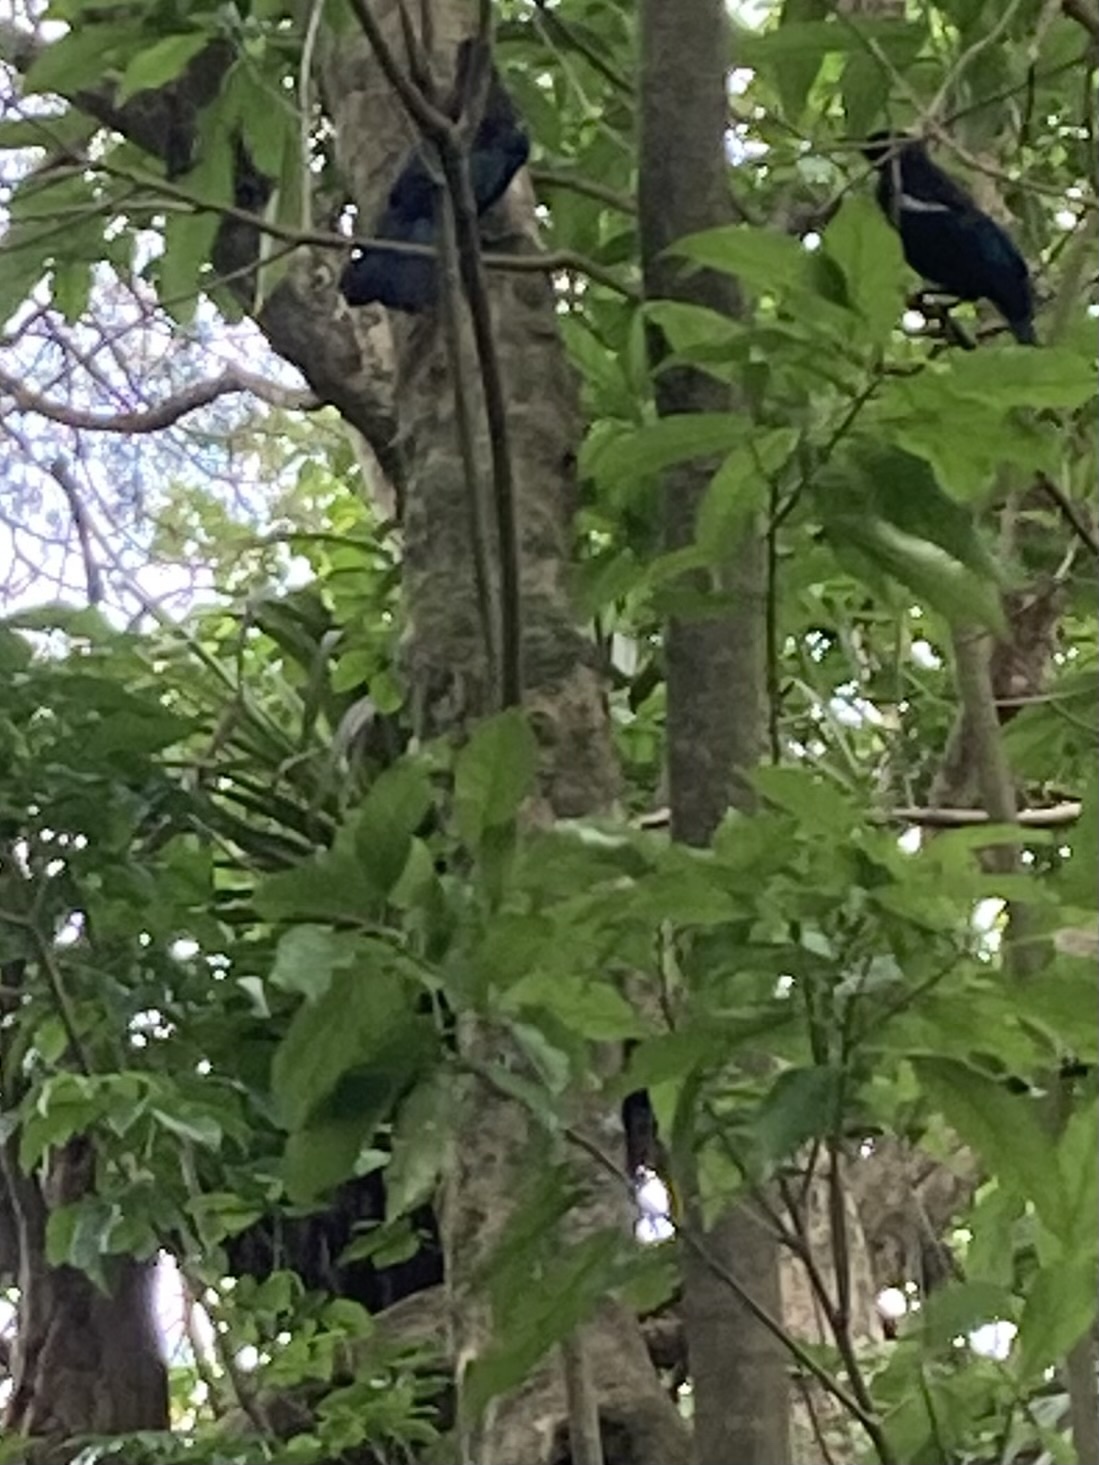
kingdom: Animalia
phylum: Chordata
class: Aves
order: Passeriformes
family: Meliphagidae
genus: Prosthemadera
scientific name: Prosthemadera novaeseelandiae
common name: Tui
